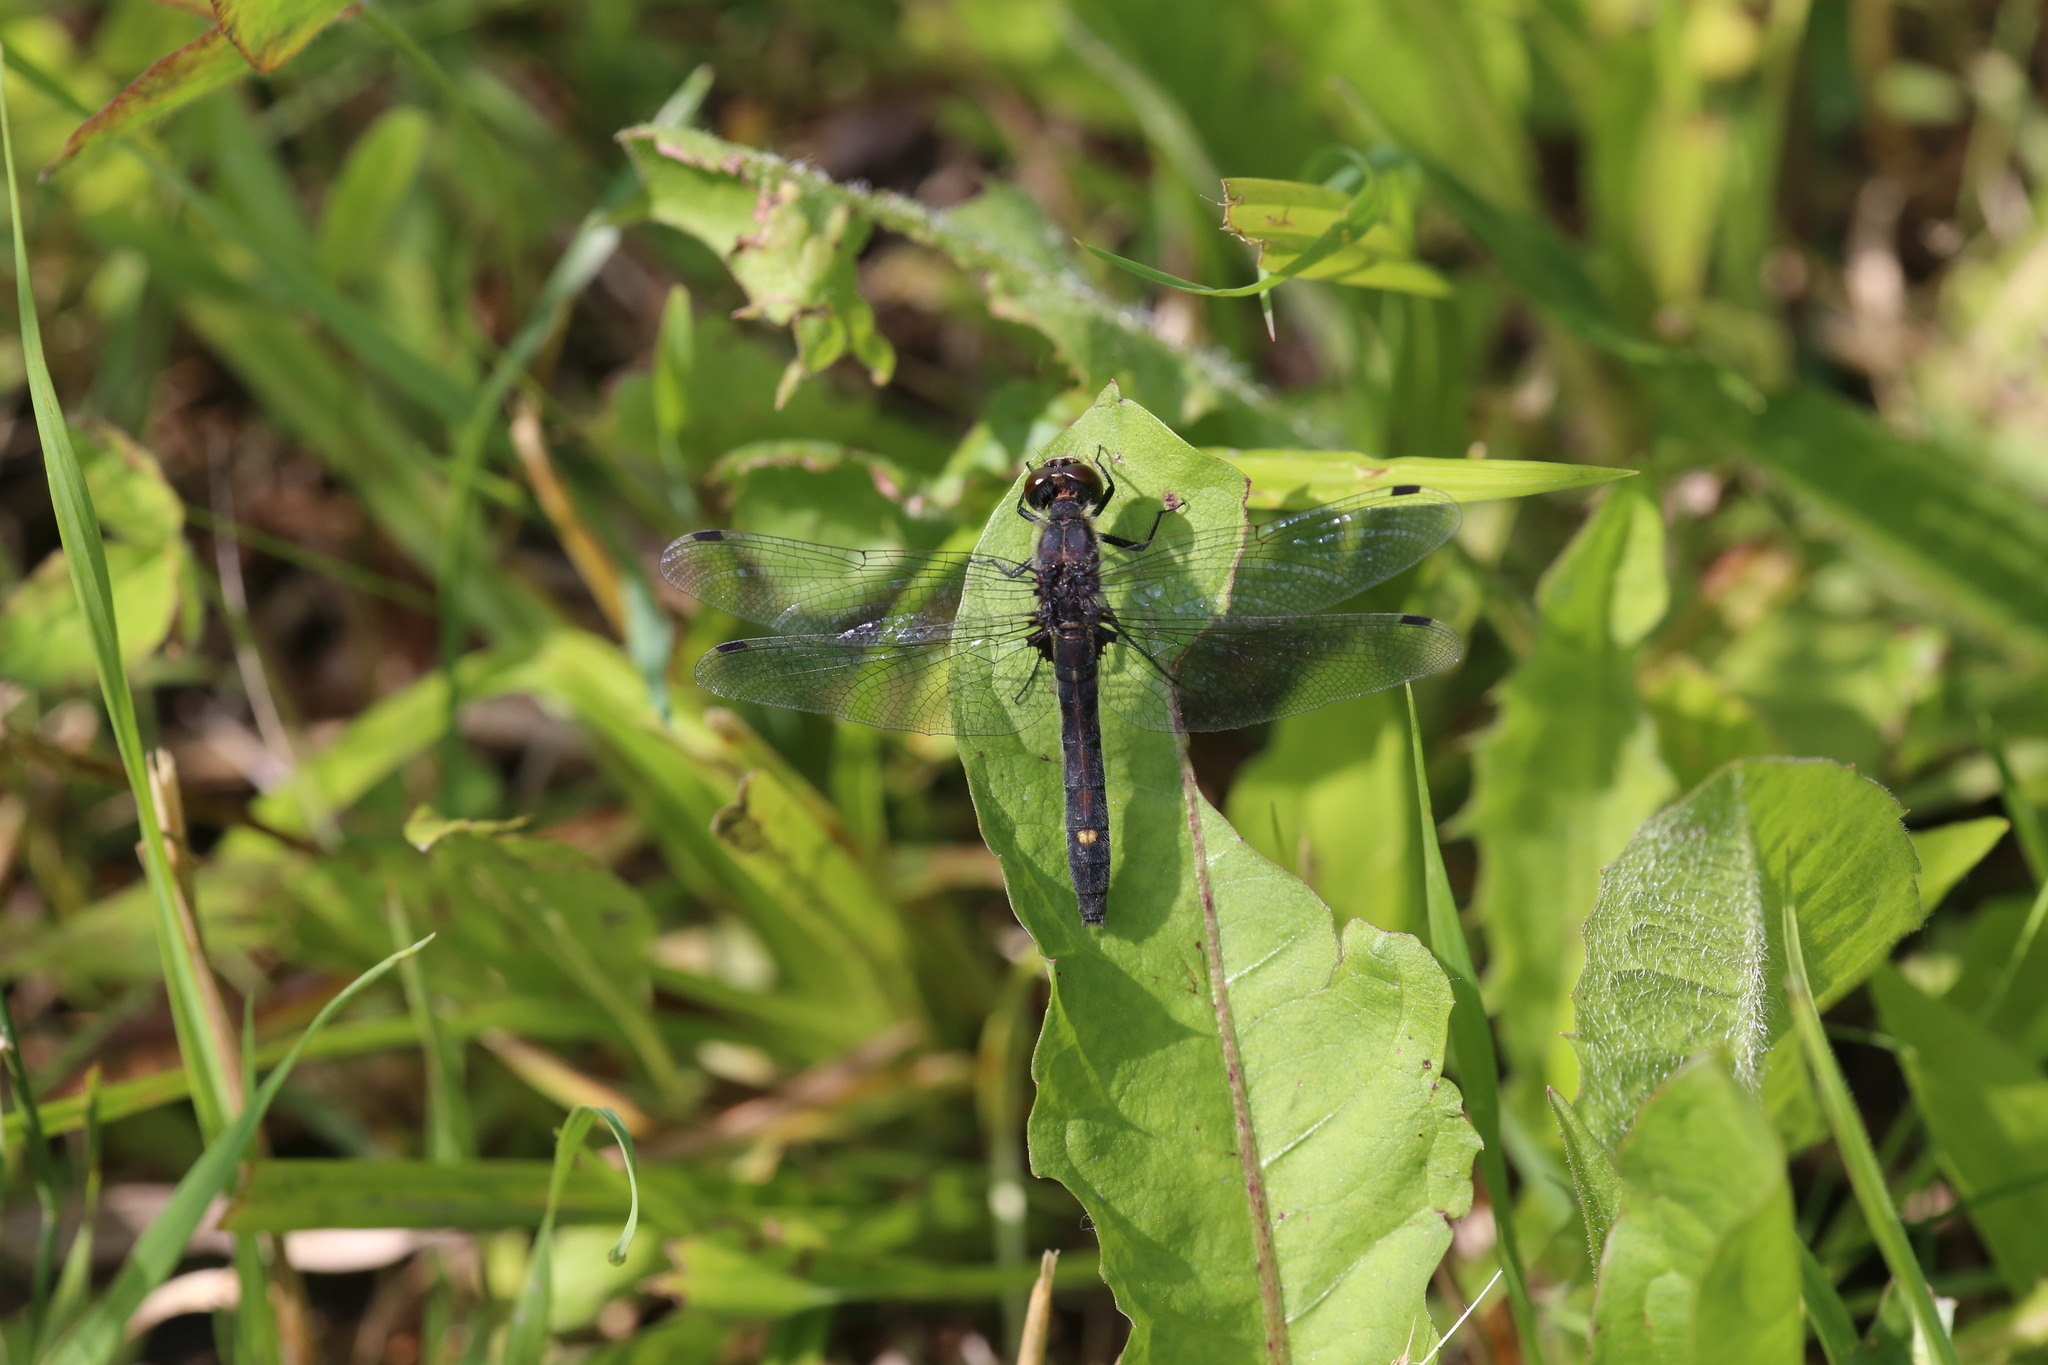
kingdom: Animalia
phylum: Arthropoda
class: Insecta
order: Odonata
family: Libellulidae
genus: Leucorrhinia
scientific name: Leucorrhinia intacta
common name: Dot-tailed whiteface
